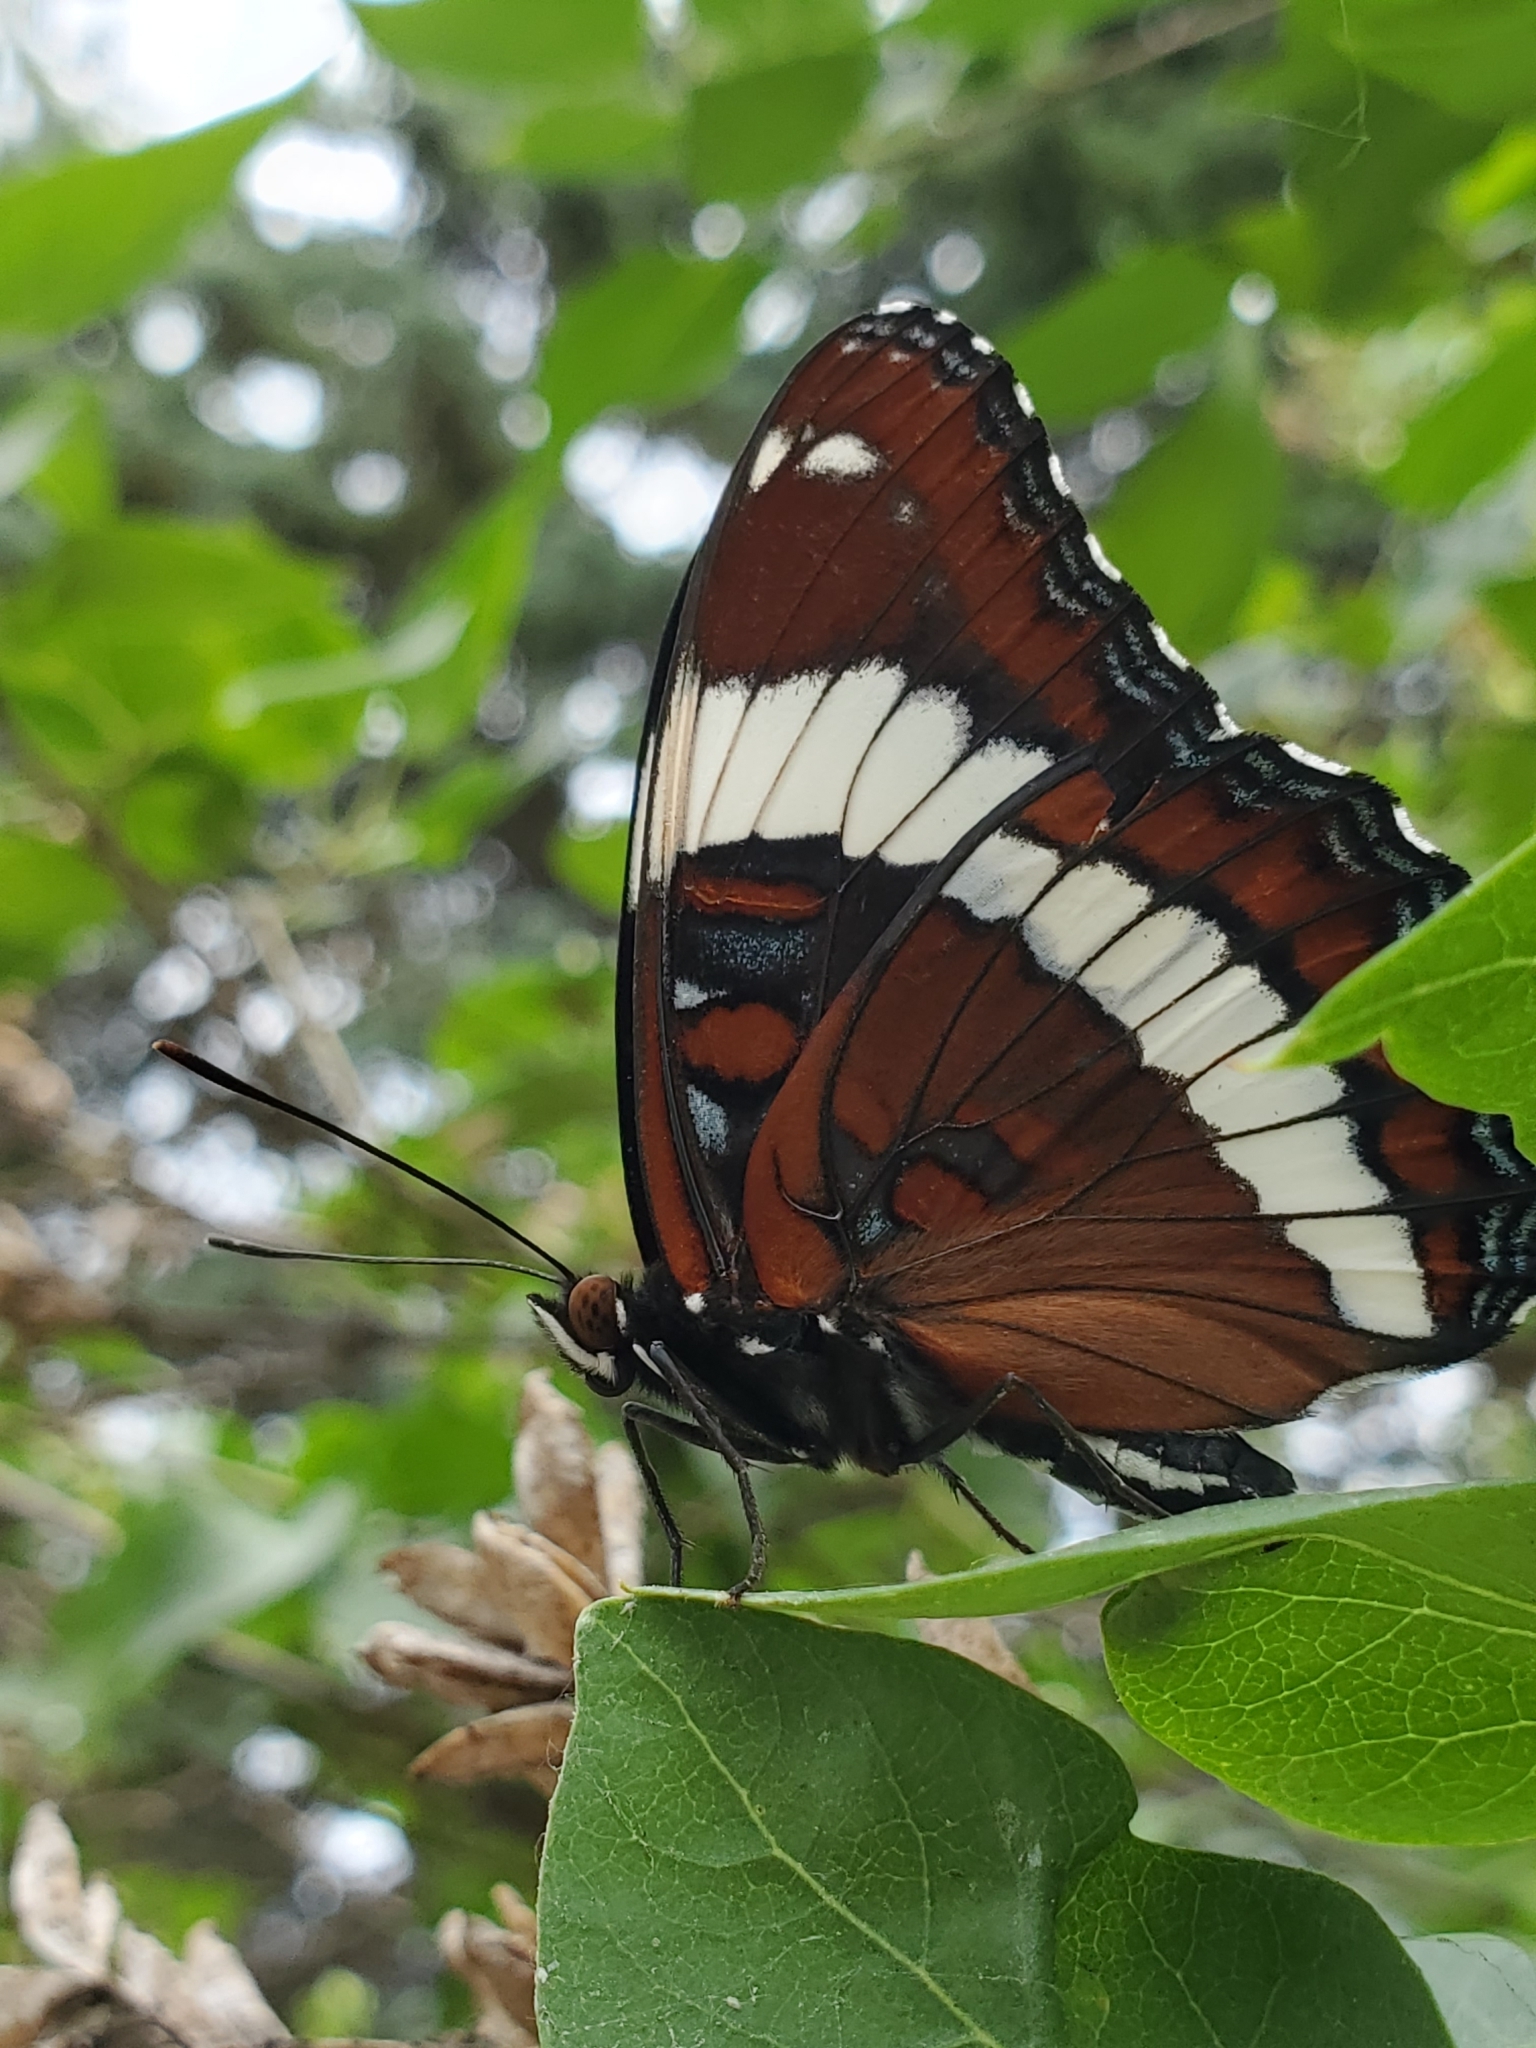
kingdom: Animalia
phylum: Arthropoda
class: Insecta
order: Lepidoptera
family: Nymphalidae
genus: Limenitis
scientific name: Limenitis arthemis
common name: Red-spotted admiral
